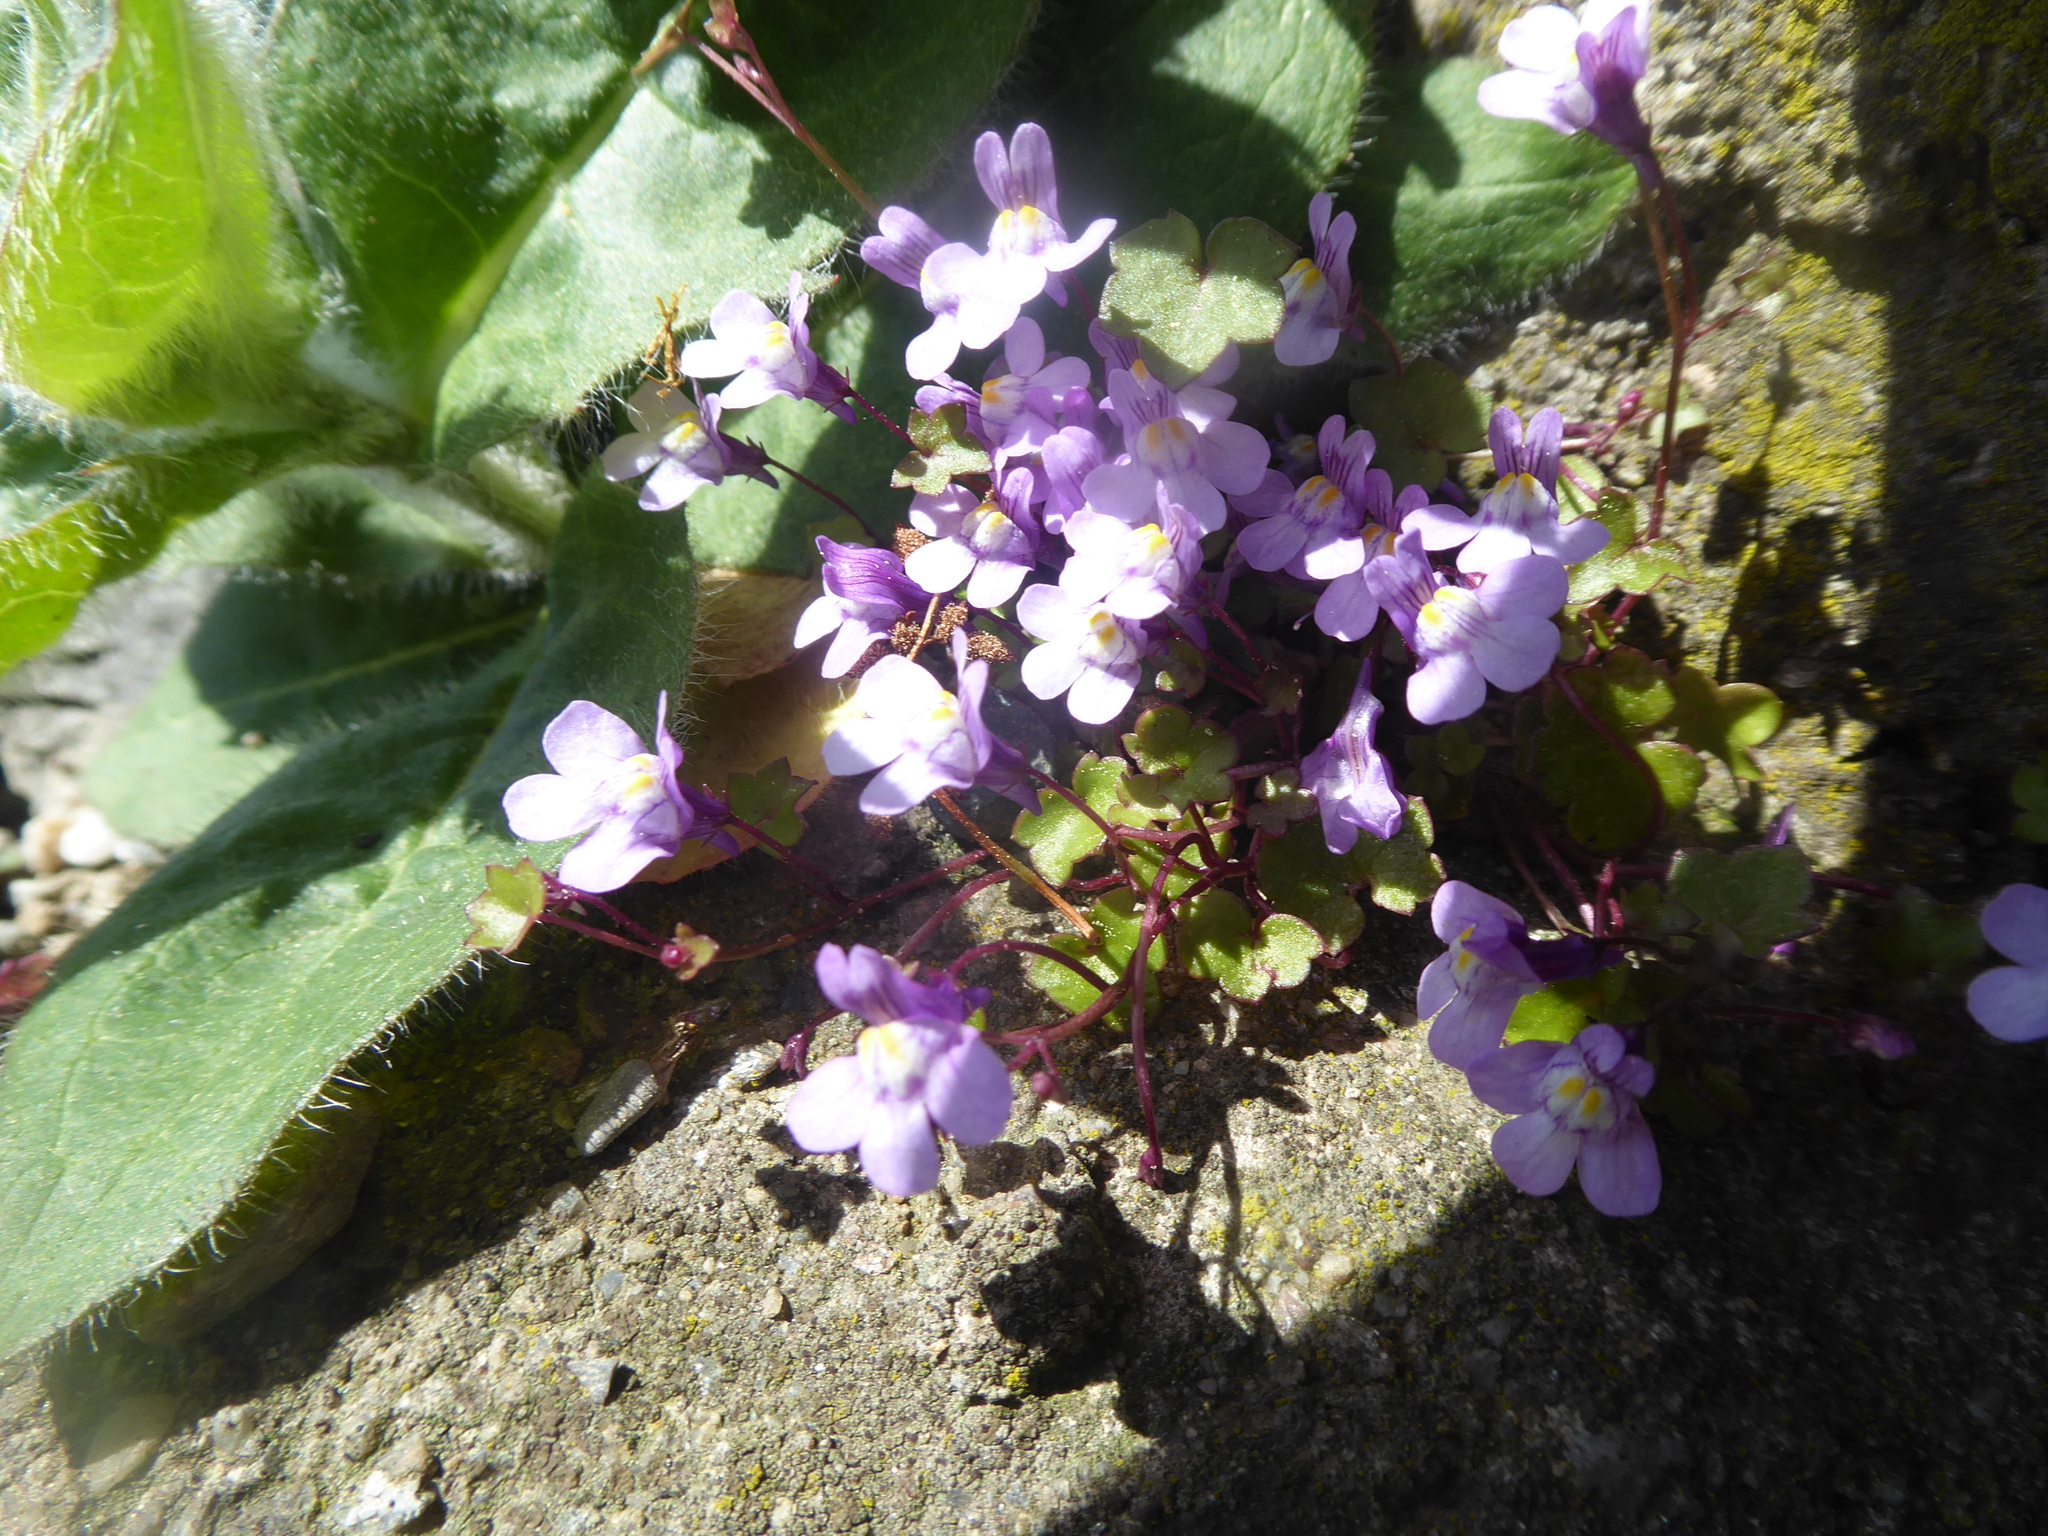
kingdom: Plantae
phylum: Tracheophyta
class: Magnoliopsida
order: Lamiales
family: Plantaginaceae
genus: Cymbalaria
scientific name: Cymbalaria muralis
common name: Ivy-leaved toadflax
